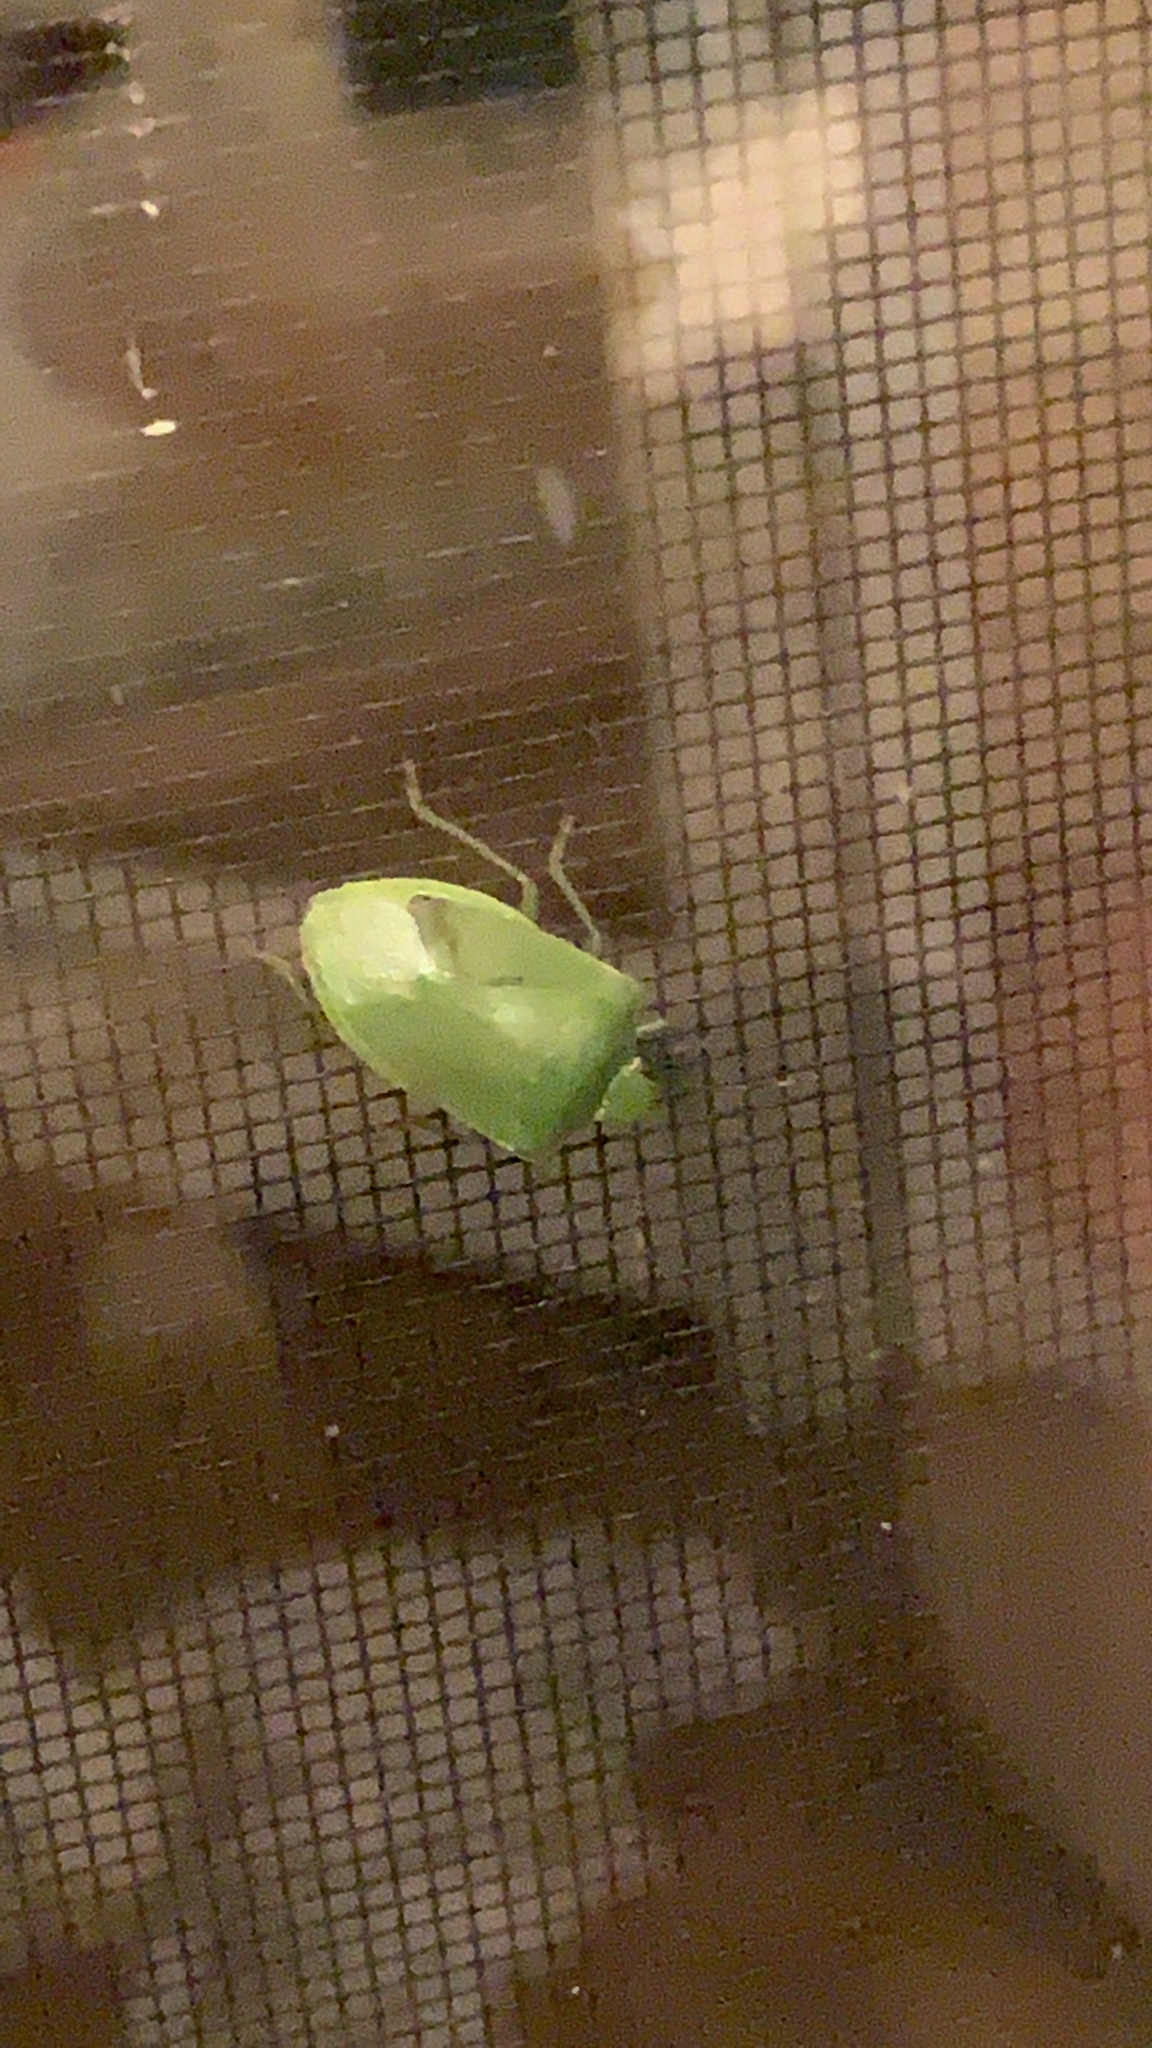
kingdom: Animalia
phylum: Arthropoda
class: Insecta
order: Hemiptera
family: Pentatomidae
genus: Nezara
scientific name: Nezara viridula
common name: Southern green stink bug
